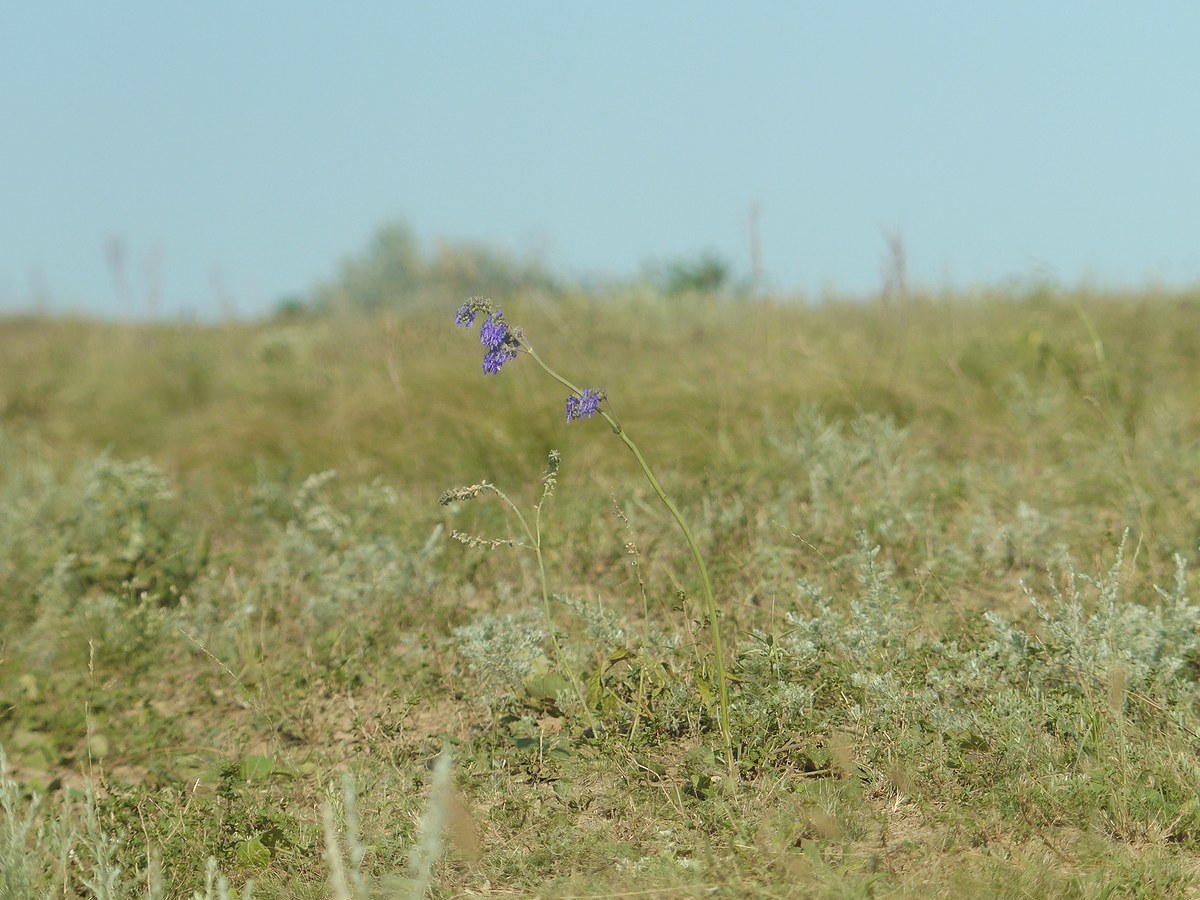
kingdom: Plantae
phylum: Tracheophyta
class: Magnoliopsida
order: Lamiales
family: Lamiaceae
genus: Salvia
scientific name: Salvia nutans
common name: Nodding sage
